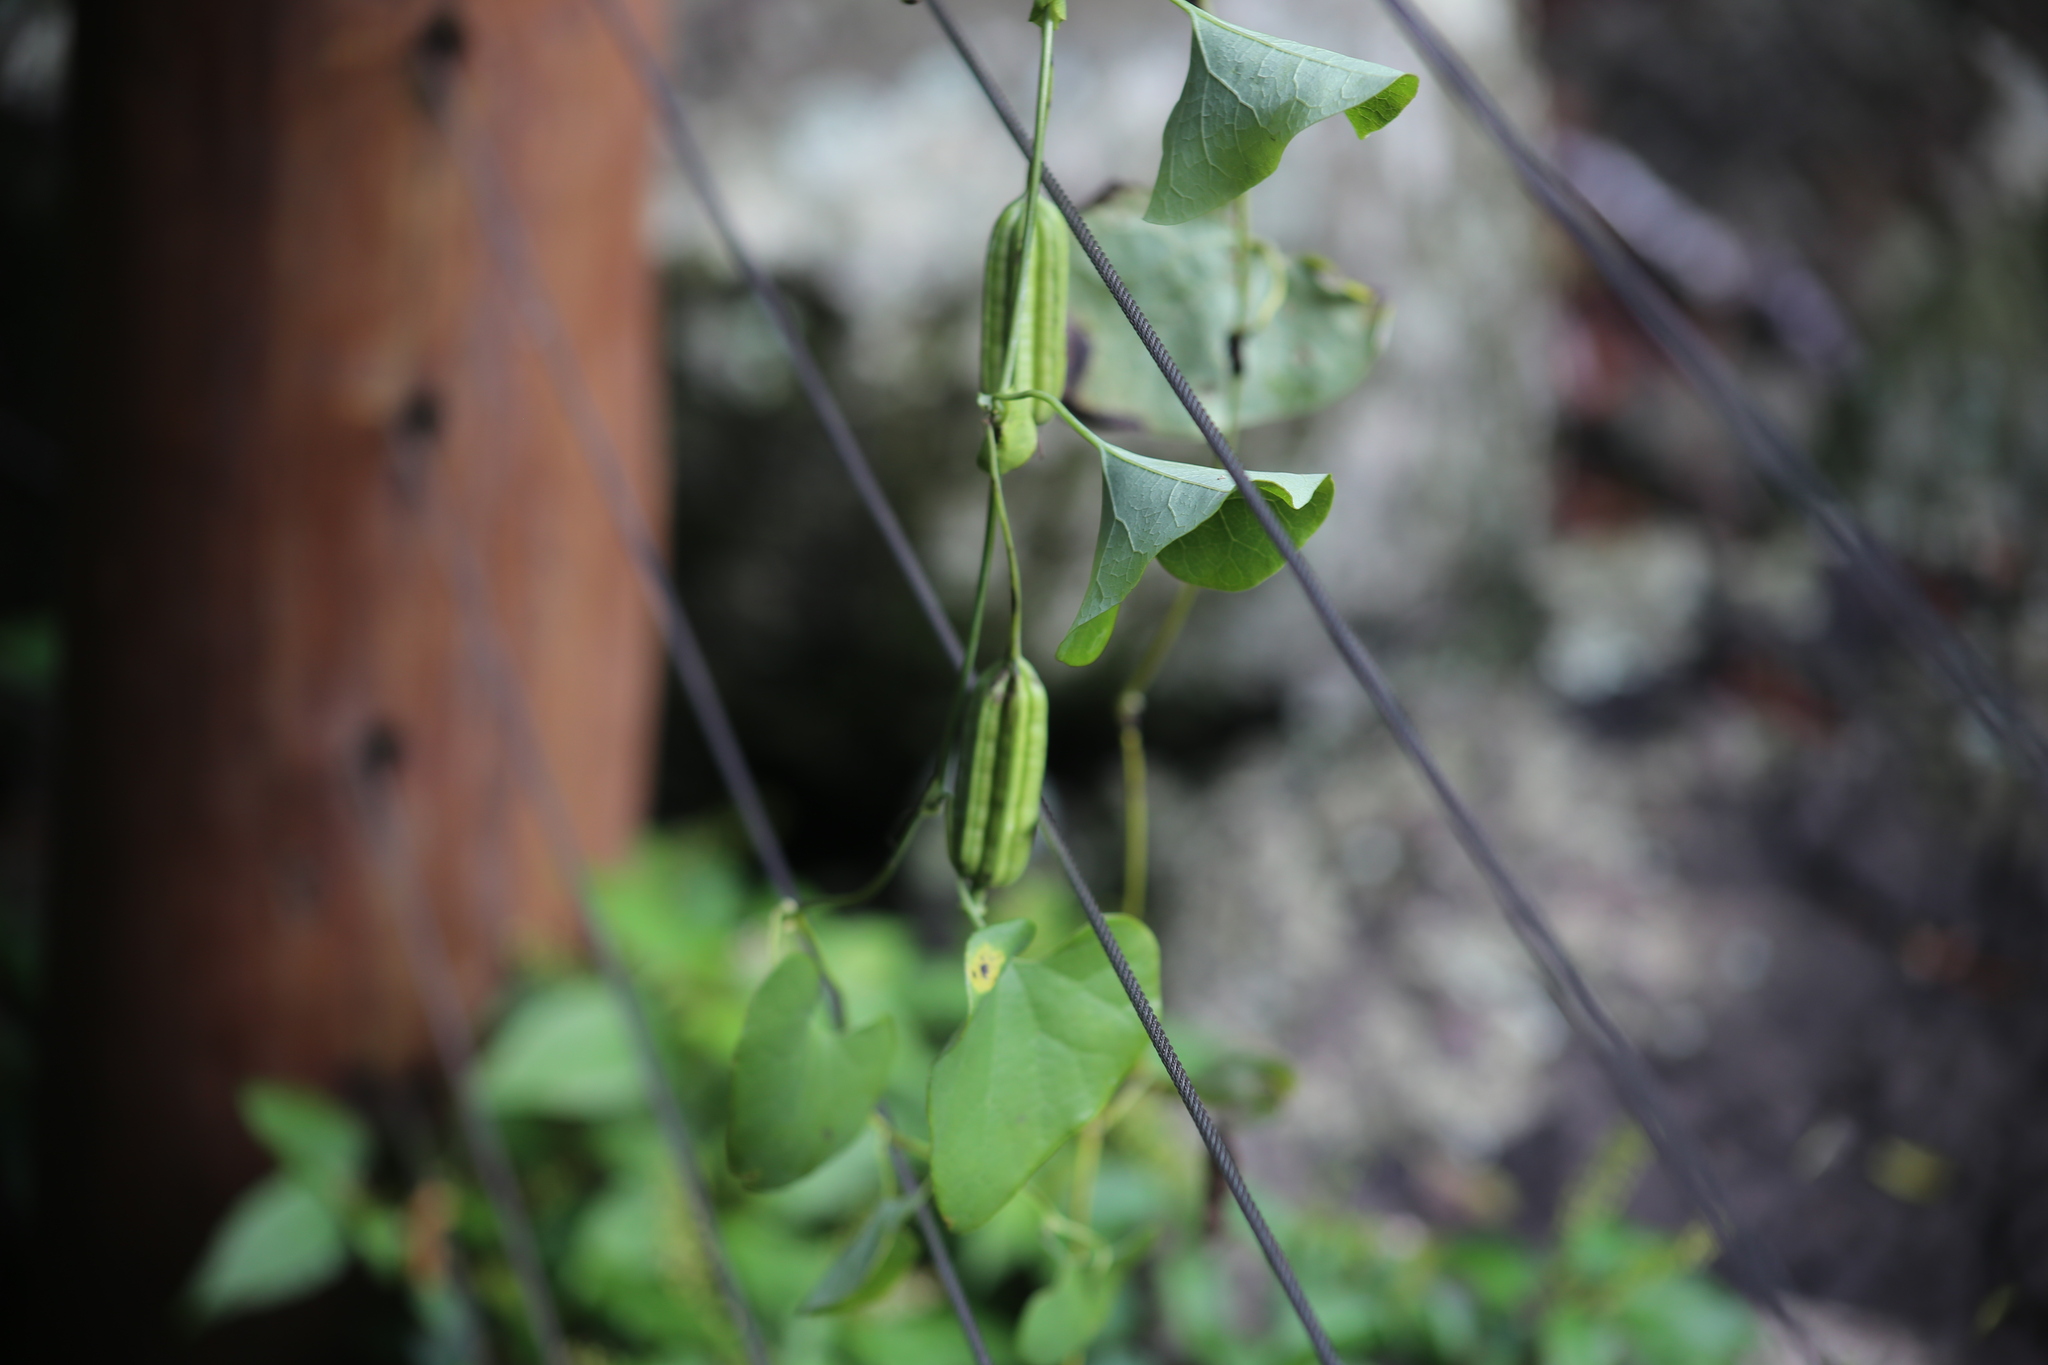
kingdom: Plantae
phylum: Tracheophyta
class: Magnoliopsida
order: Piperales
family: Aristolochiaceae
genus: Aristolochia
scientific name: Aristolochia littoralis
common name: Duck
